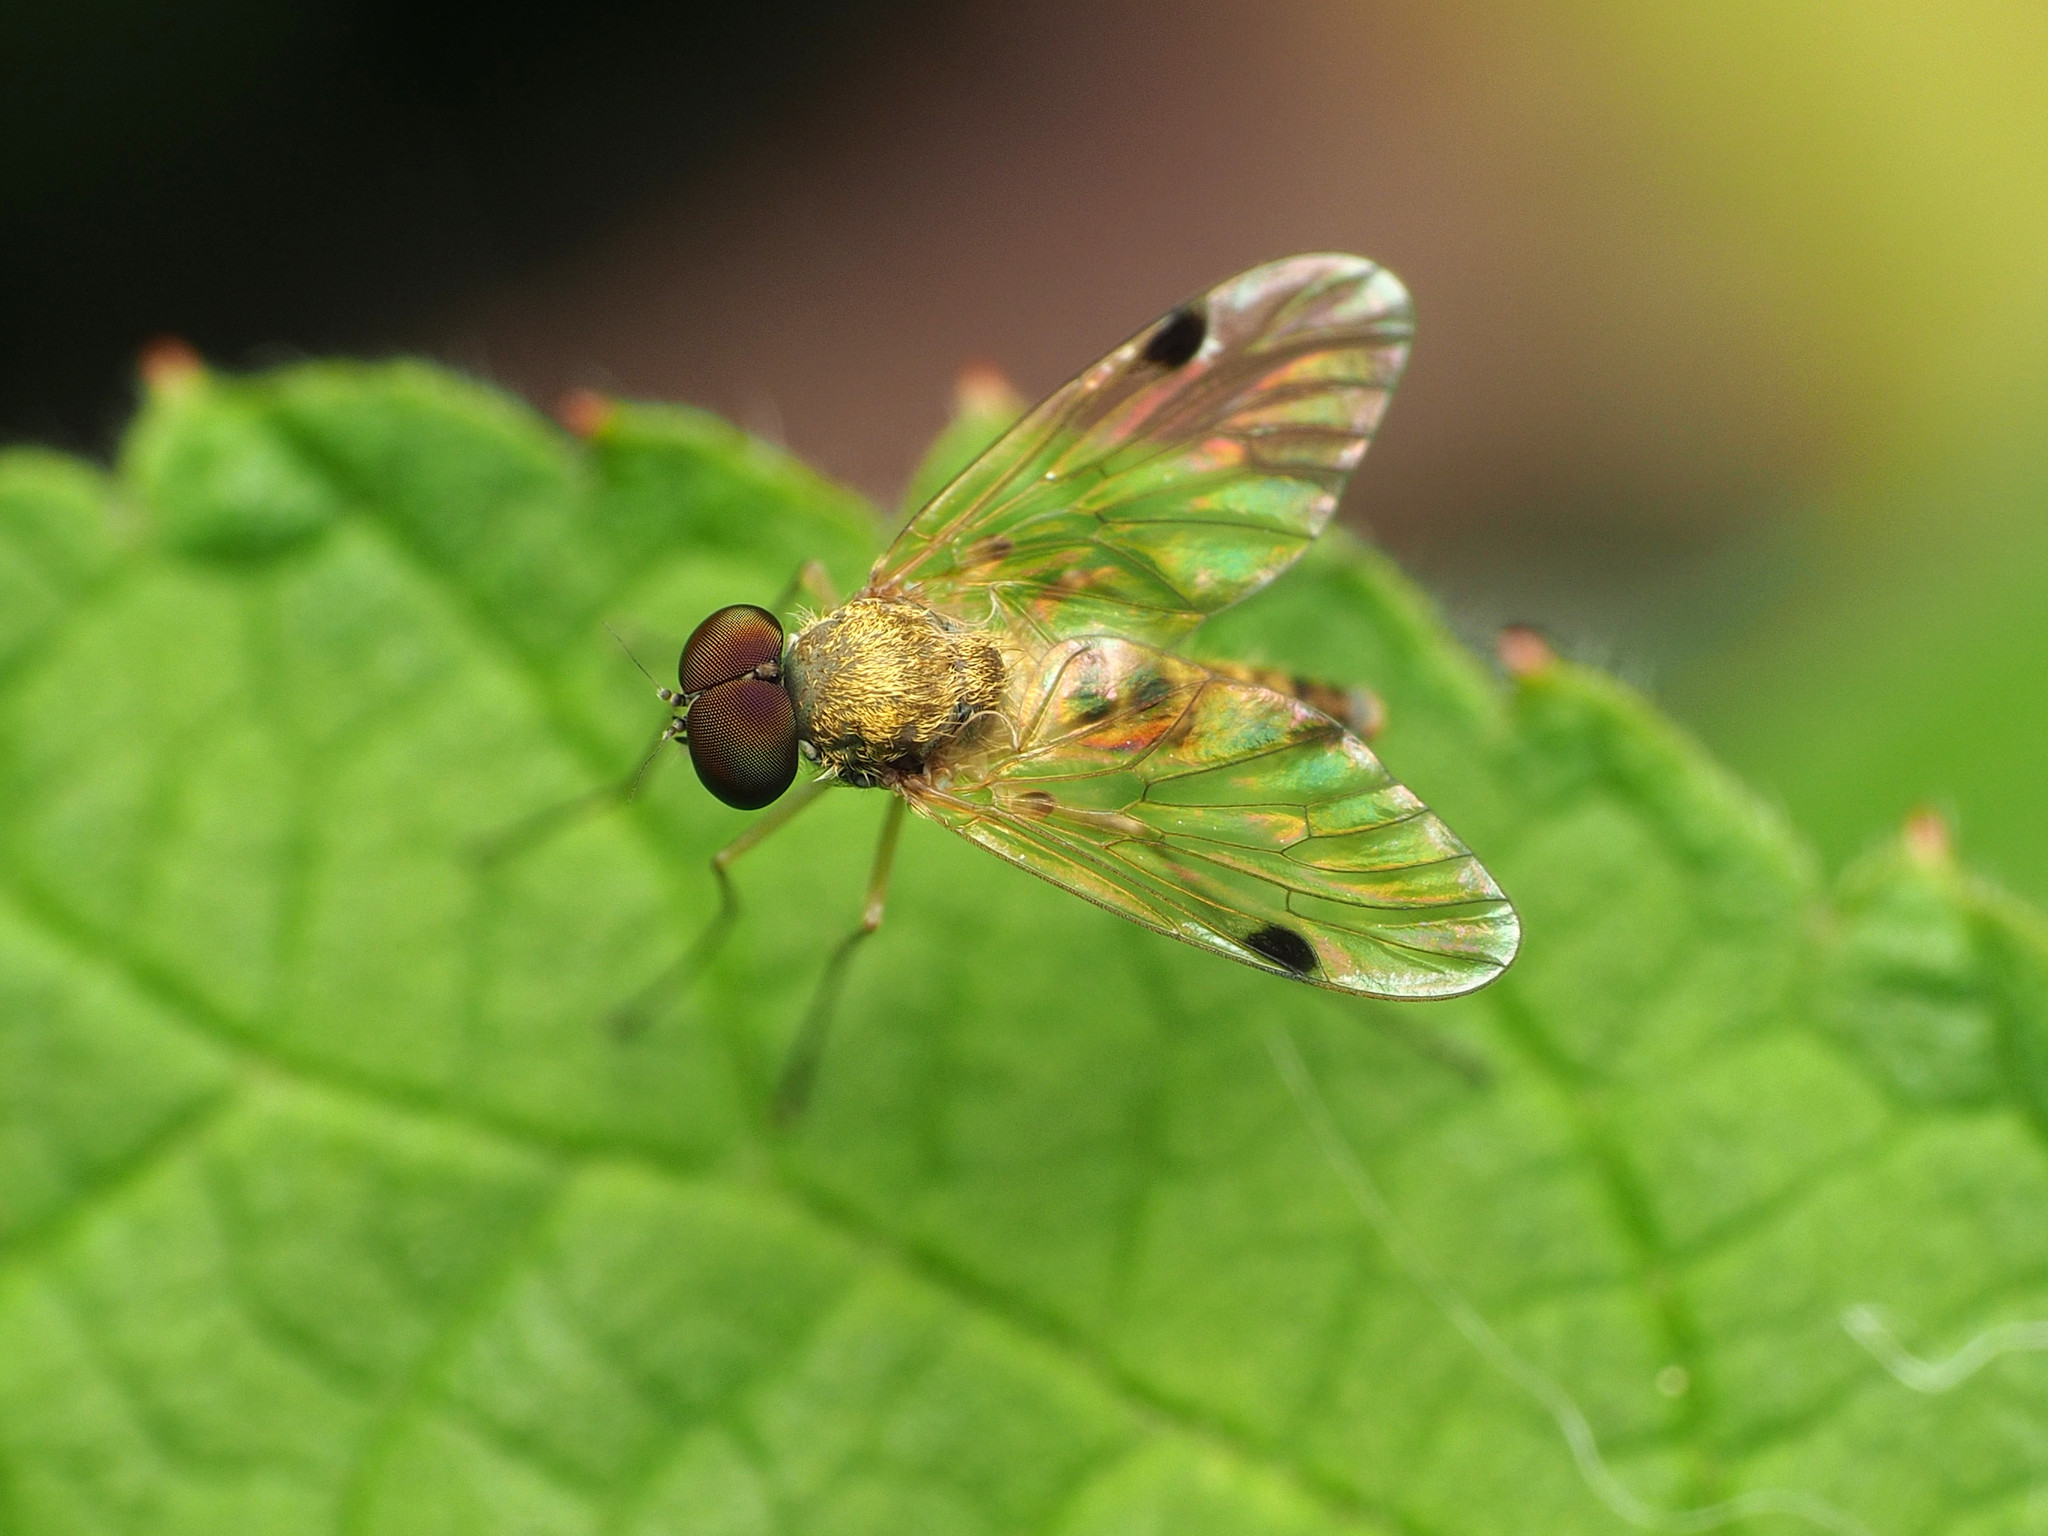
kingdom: Animalia
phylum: Arthropoda
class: Insecta
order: Diptera
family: Rhagionidae
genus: Chrysopilus
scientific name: Chrysopilus modestus
